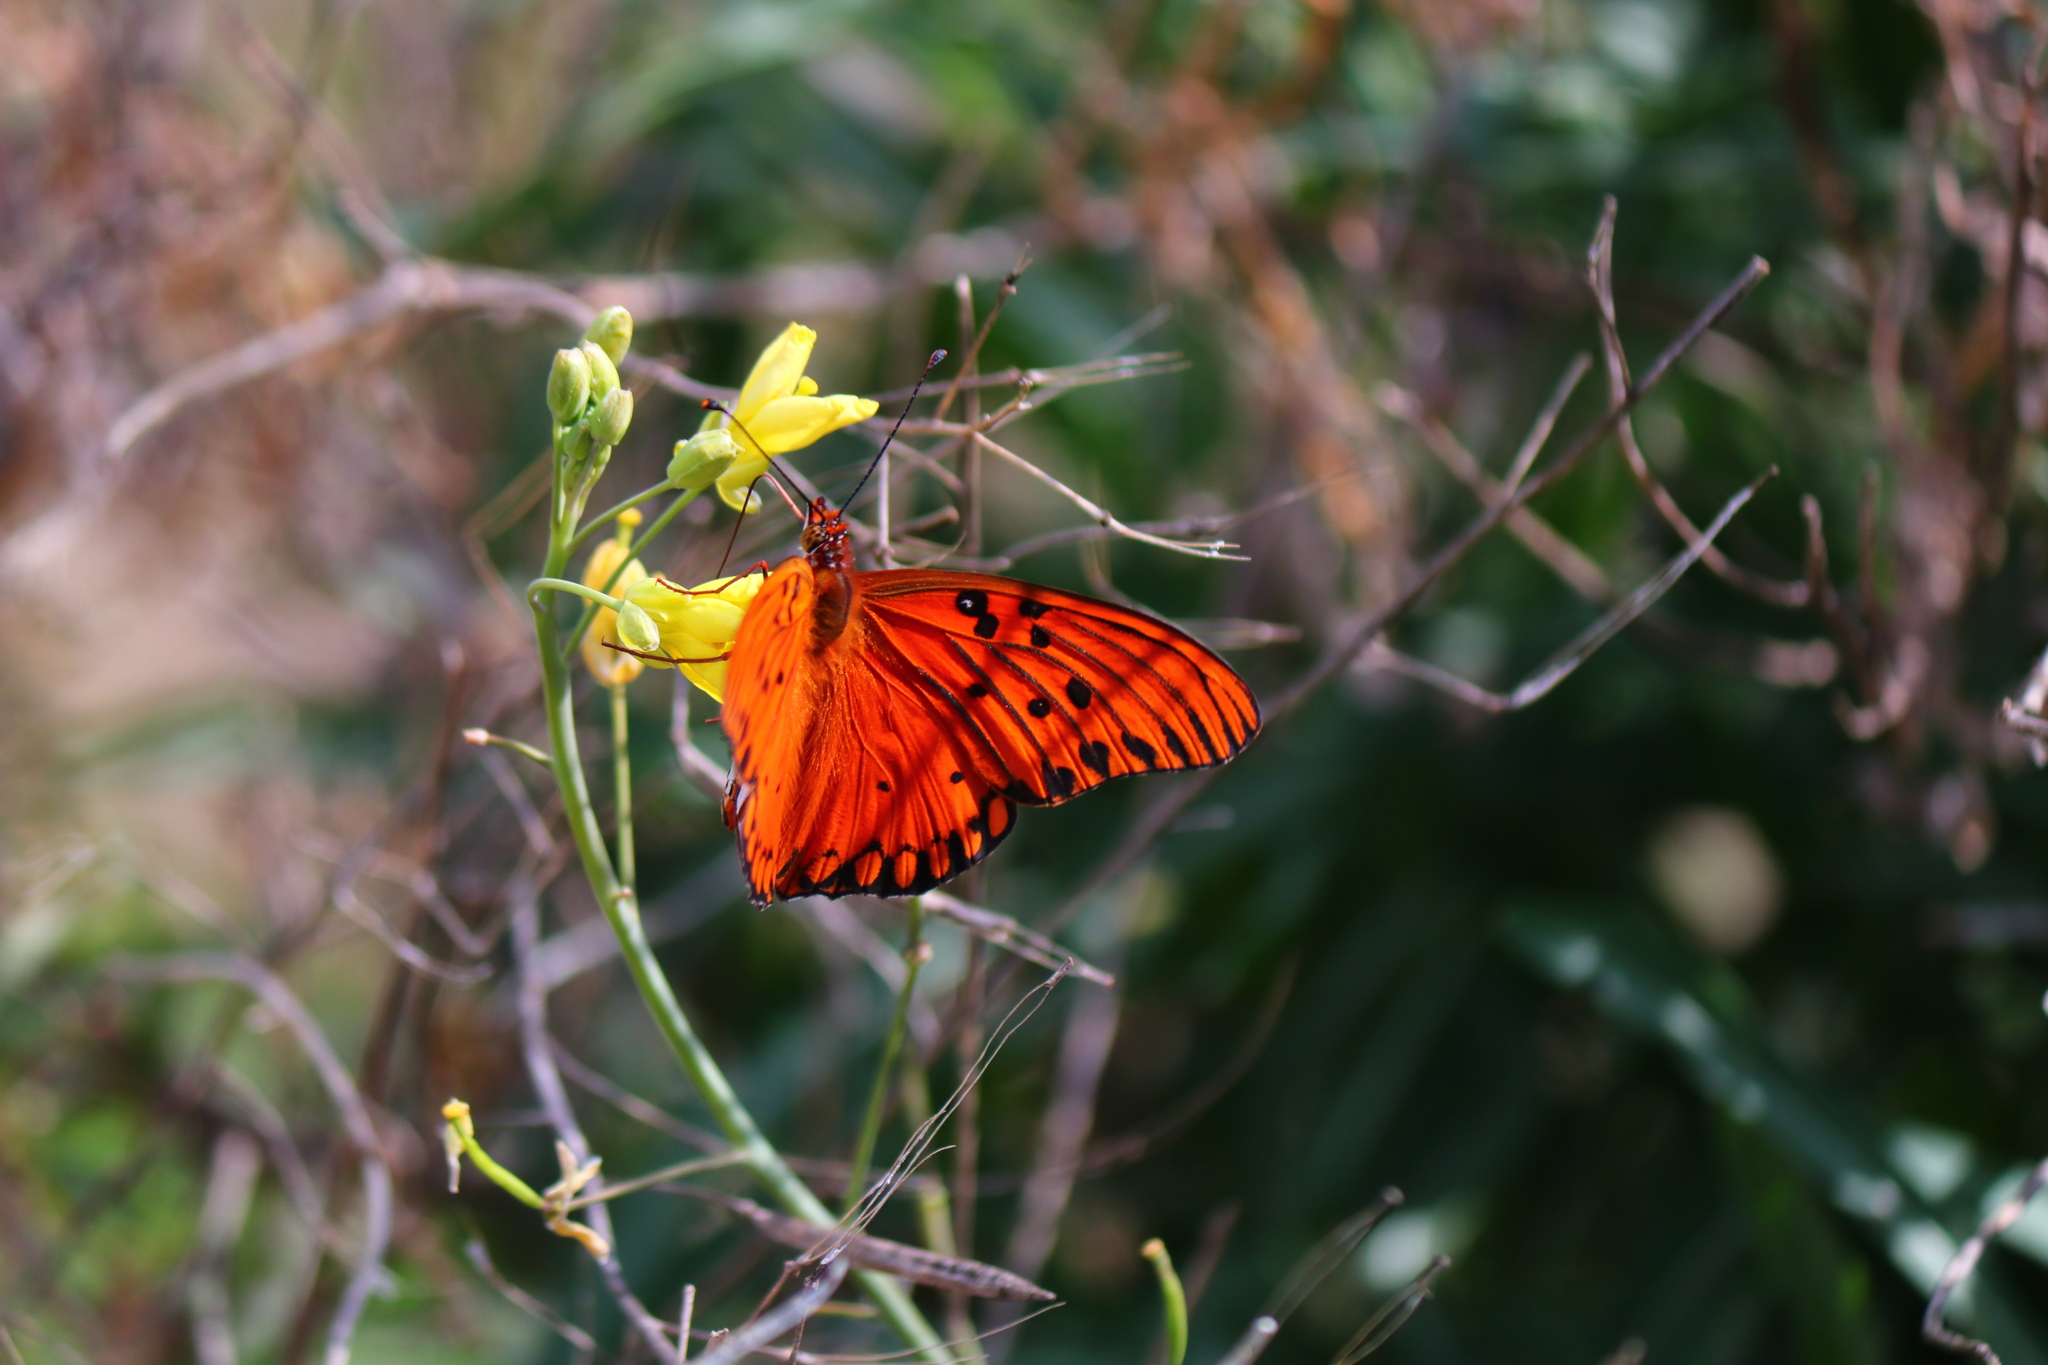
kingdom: Animalia
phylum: Arthropoda
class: Insecta
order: Lepidoptera
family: Nymphalidae
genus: Dione
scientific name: Dione vanillae
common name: Gulf fritillary
